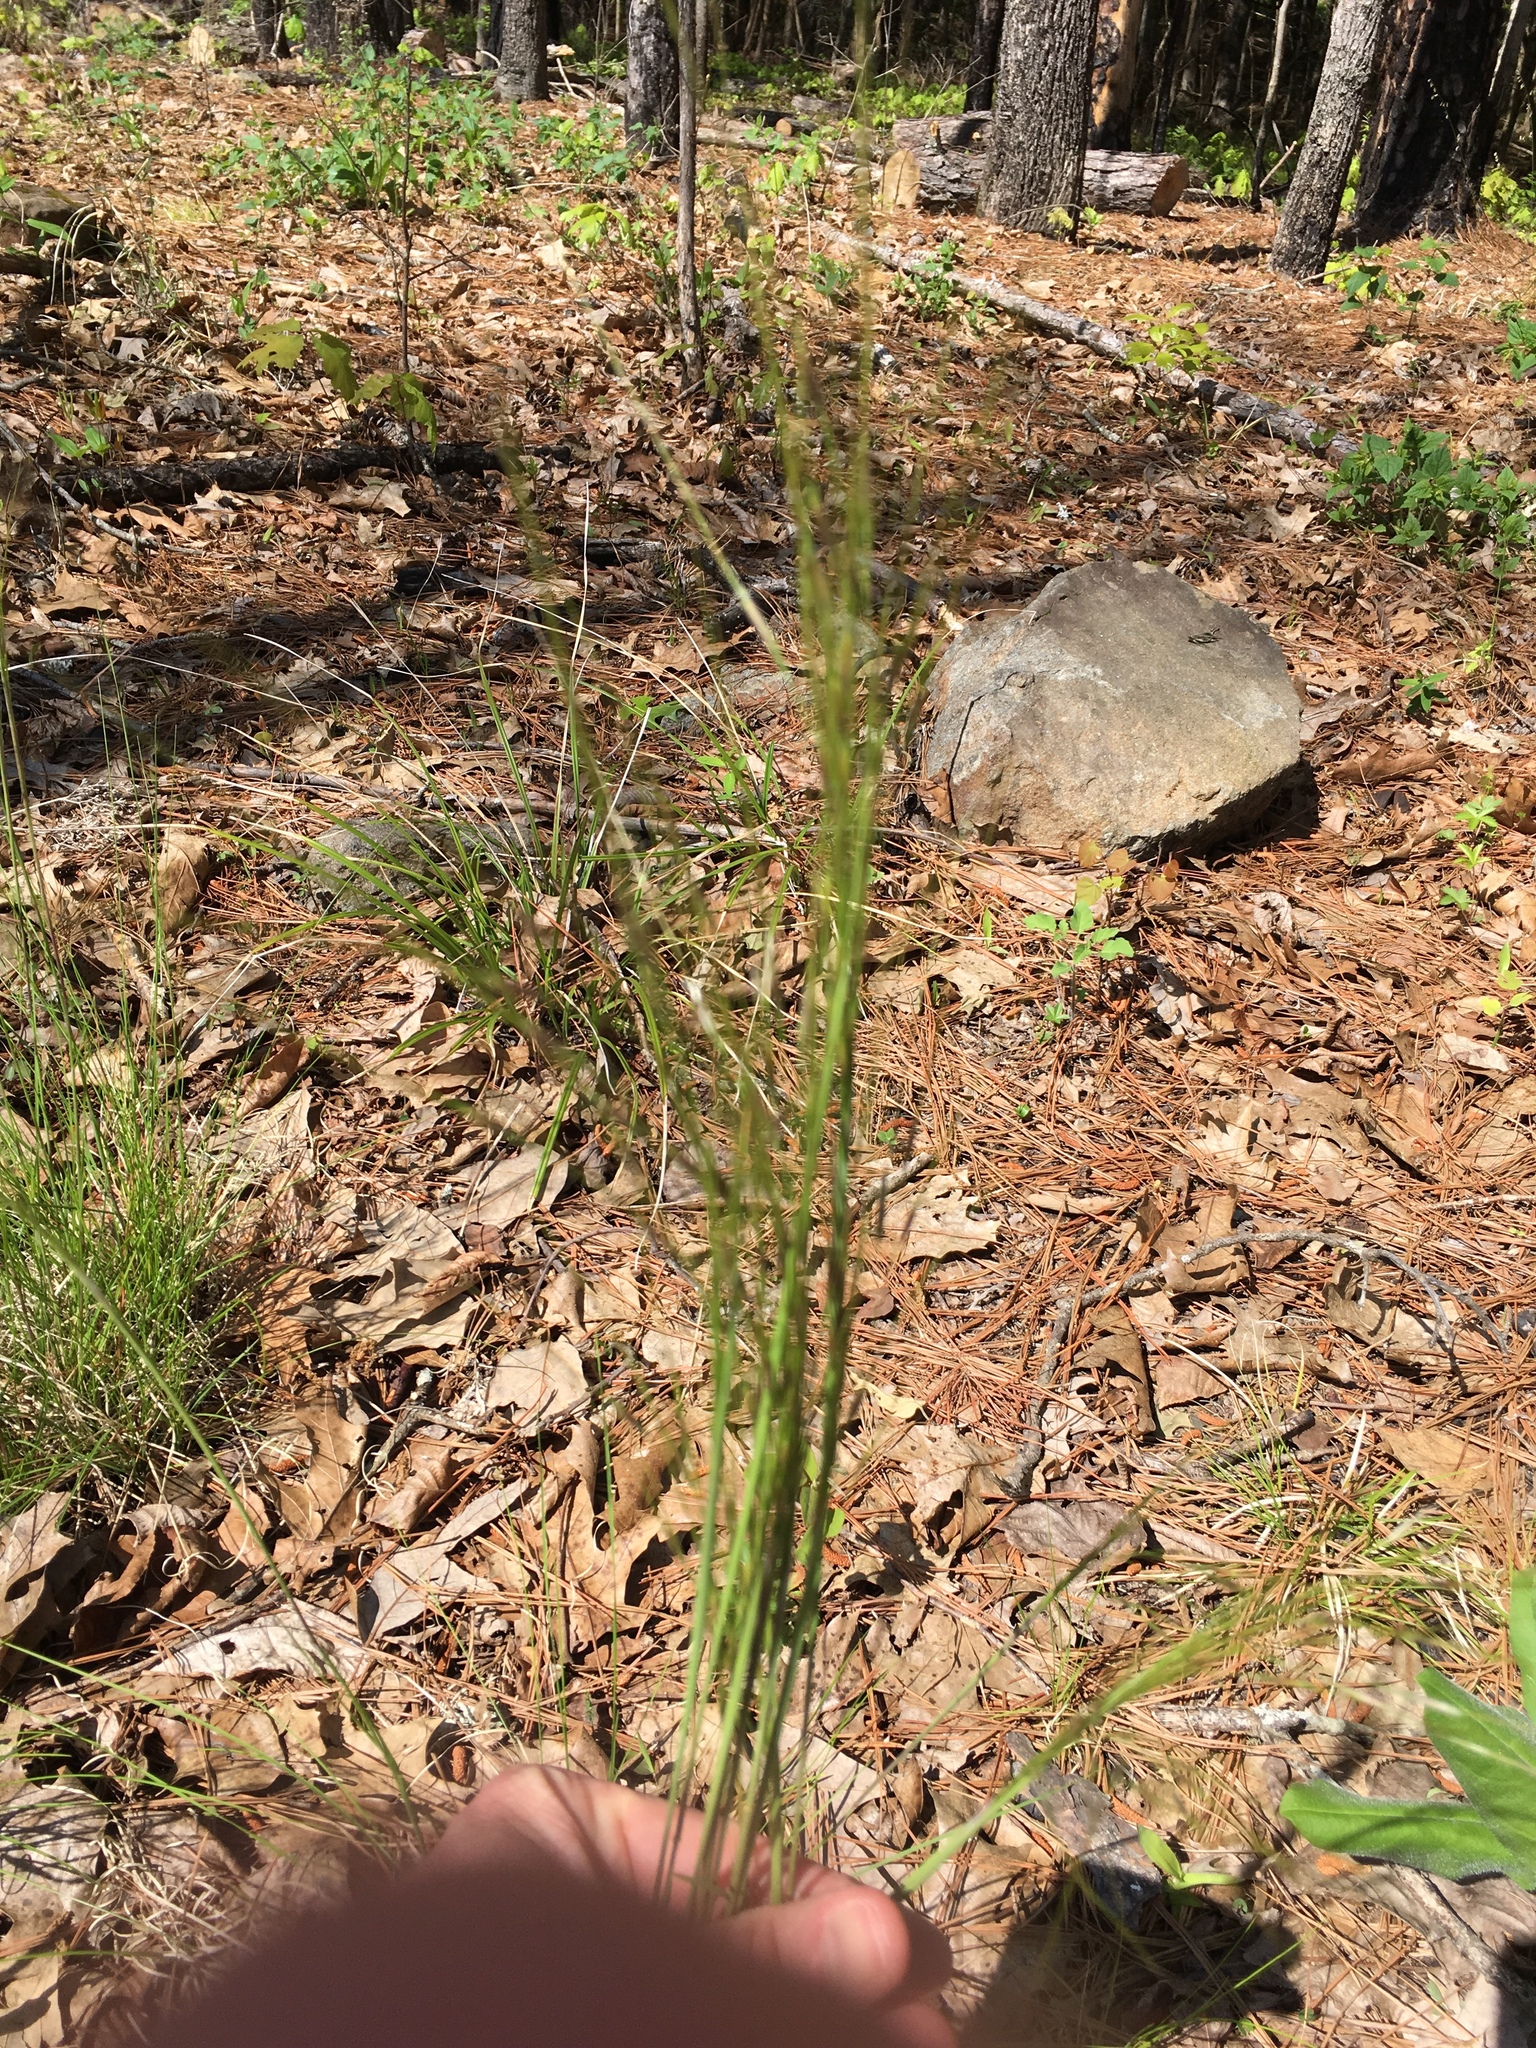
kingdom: Plantae
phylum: Tracheophyta
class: Liliopsida
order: Poales
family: Poaceae
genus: Piptochaetium
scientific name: Piptochaetium avenaceum
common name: Black bunchgrass
